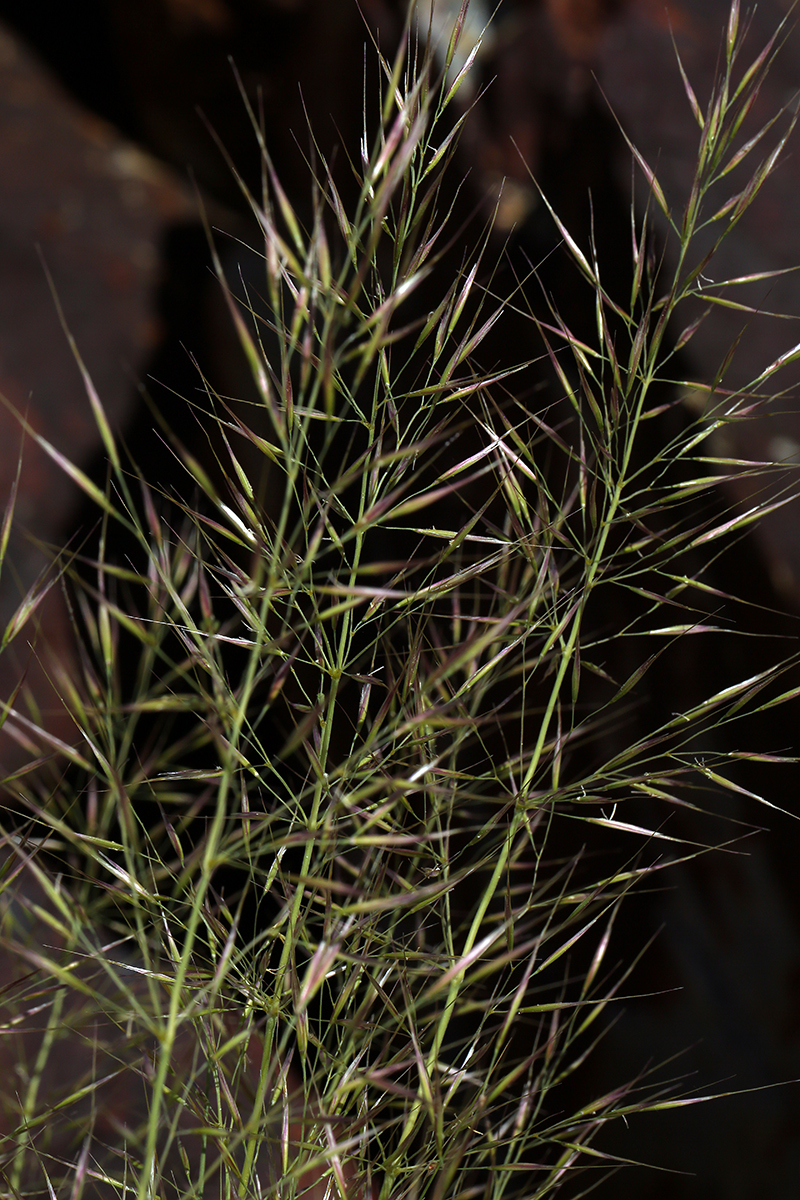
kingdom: Plantae
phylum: Tracheophyta
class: Liliopsida
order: Poales
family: Poaceae
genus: Eriocoma
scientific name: Eriocoma parishii
